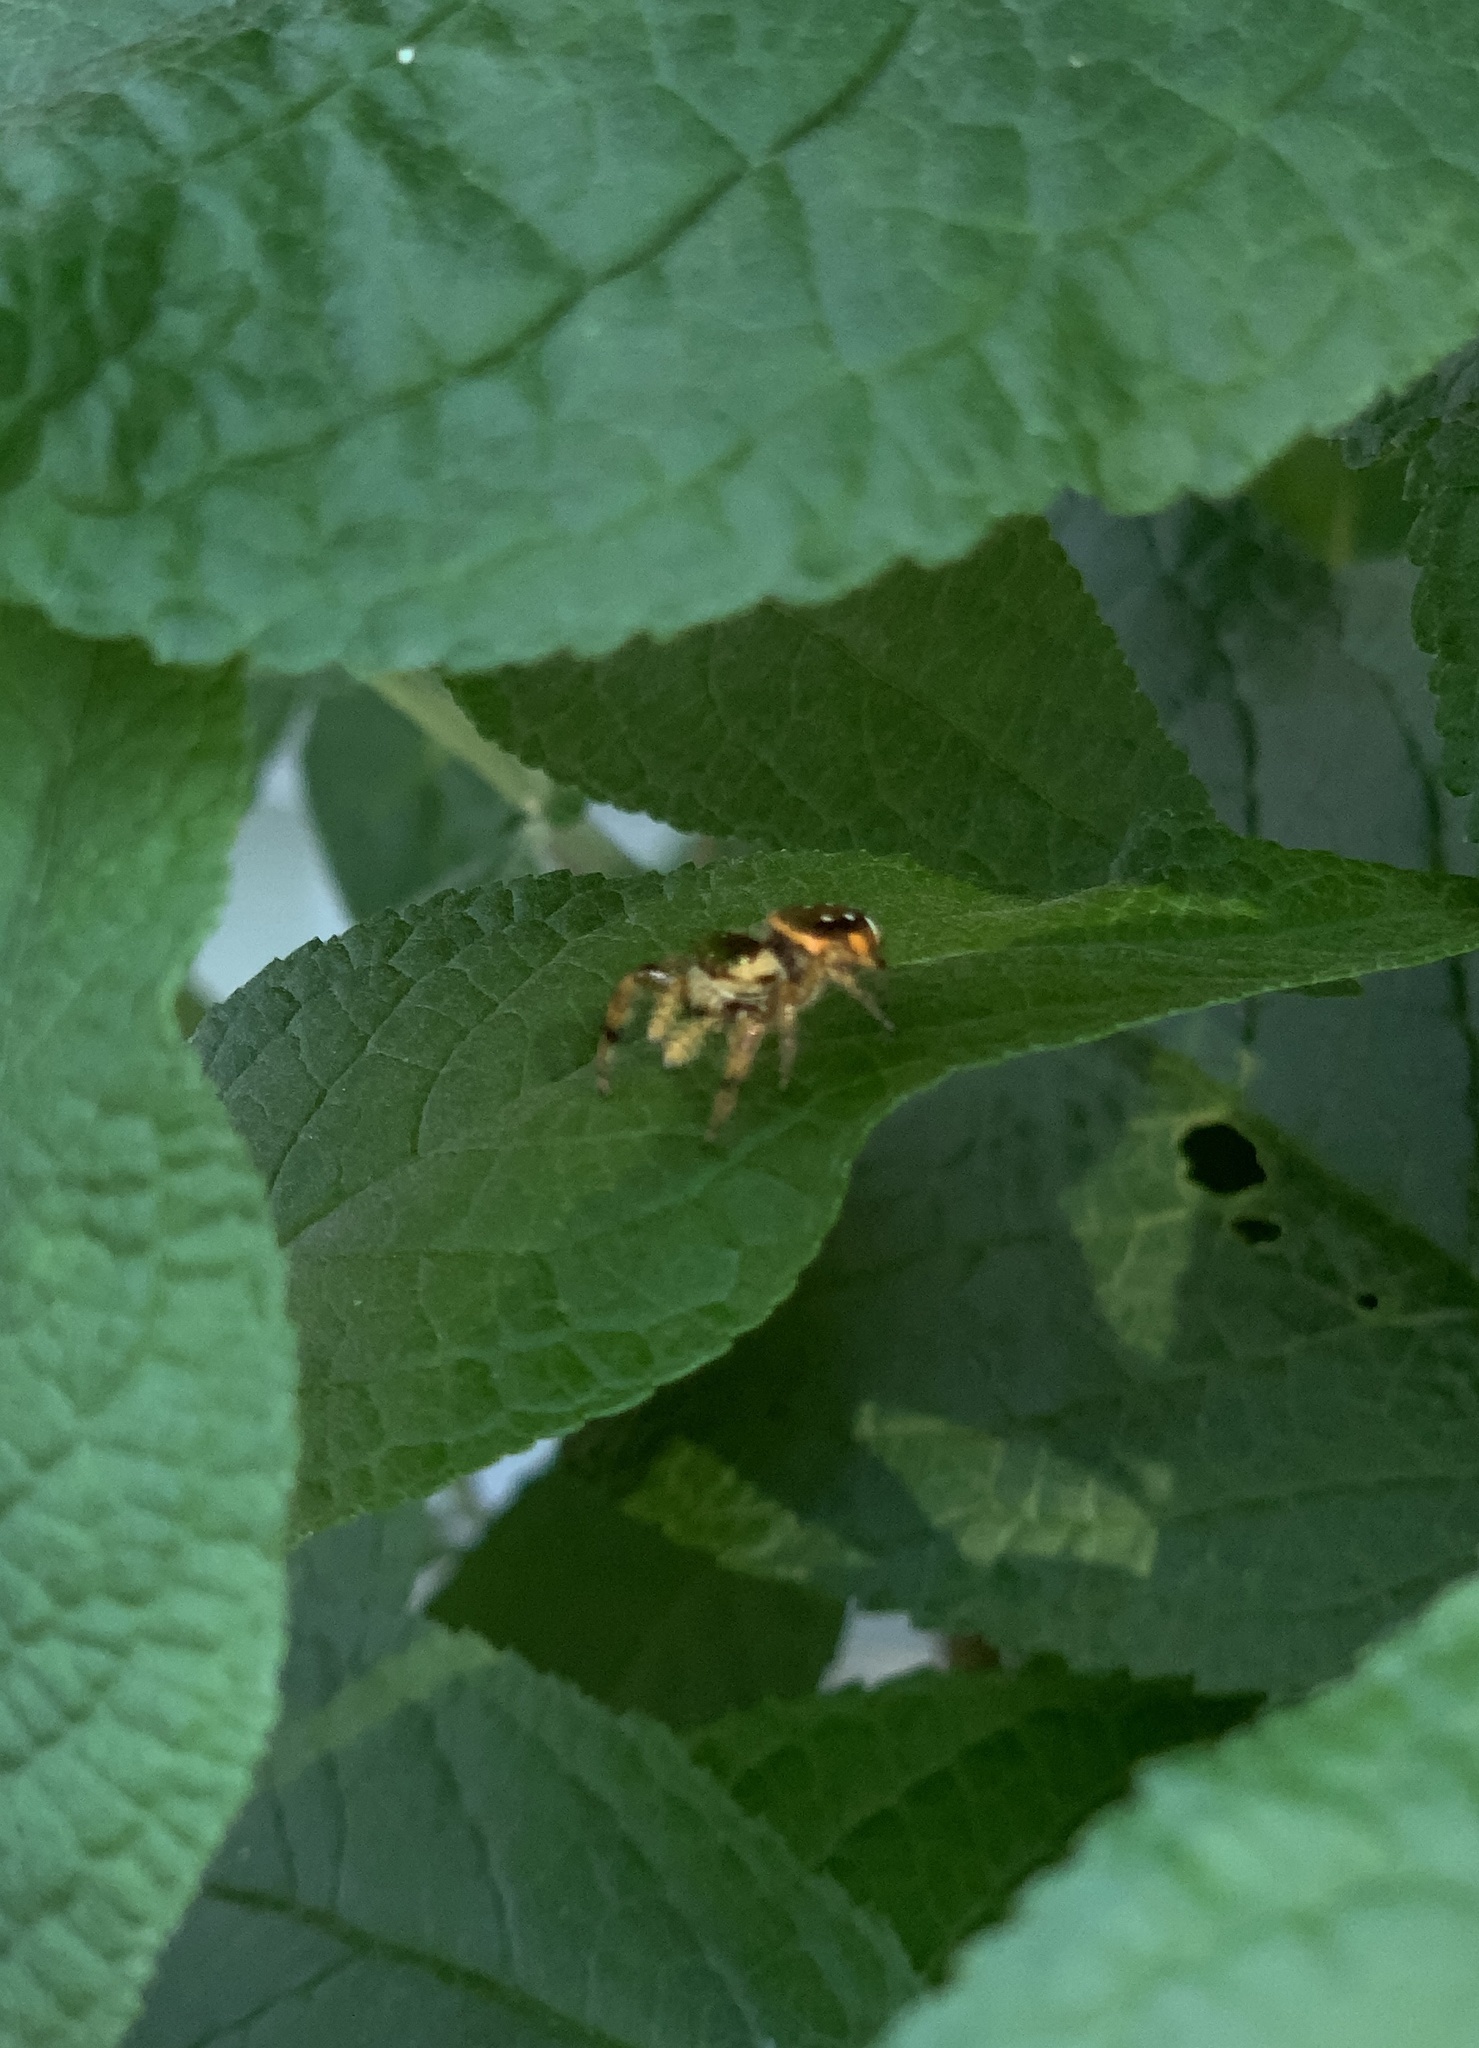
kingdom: Animalia
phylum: Arthropoda
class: Arachnida
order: Araneae
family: Salticidae
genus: Paraphidippus
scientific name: Paraphidippus aurantius
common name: Jumping spiders
